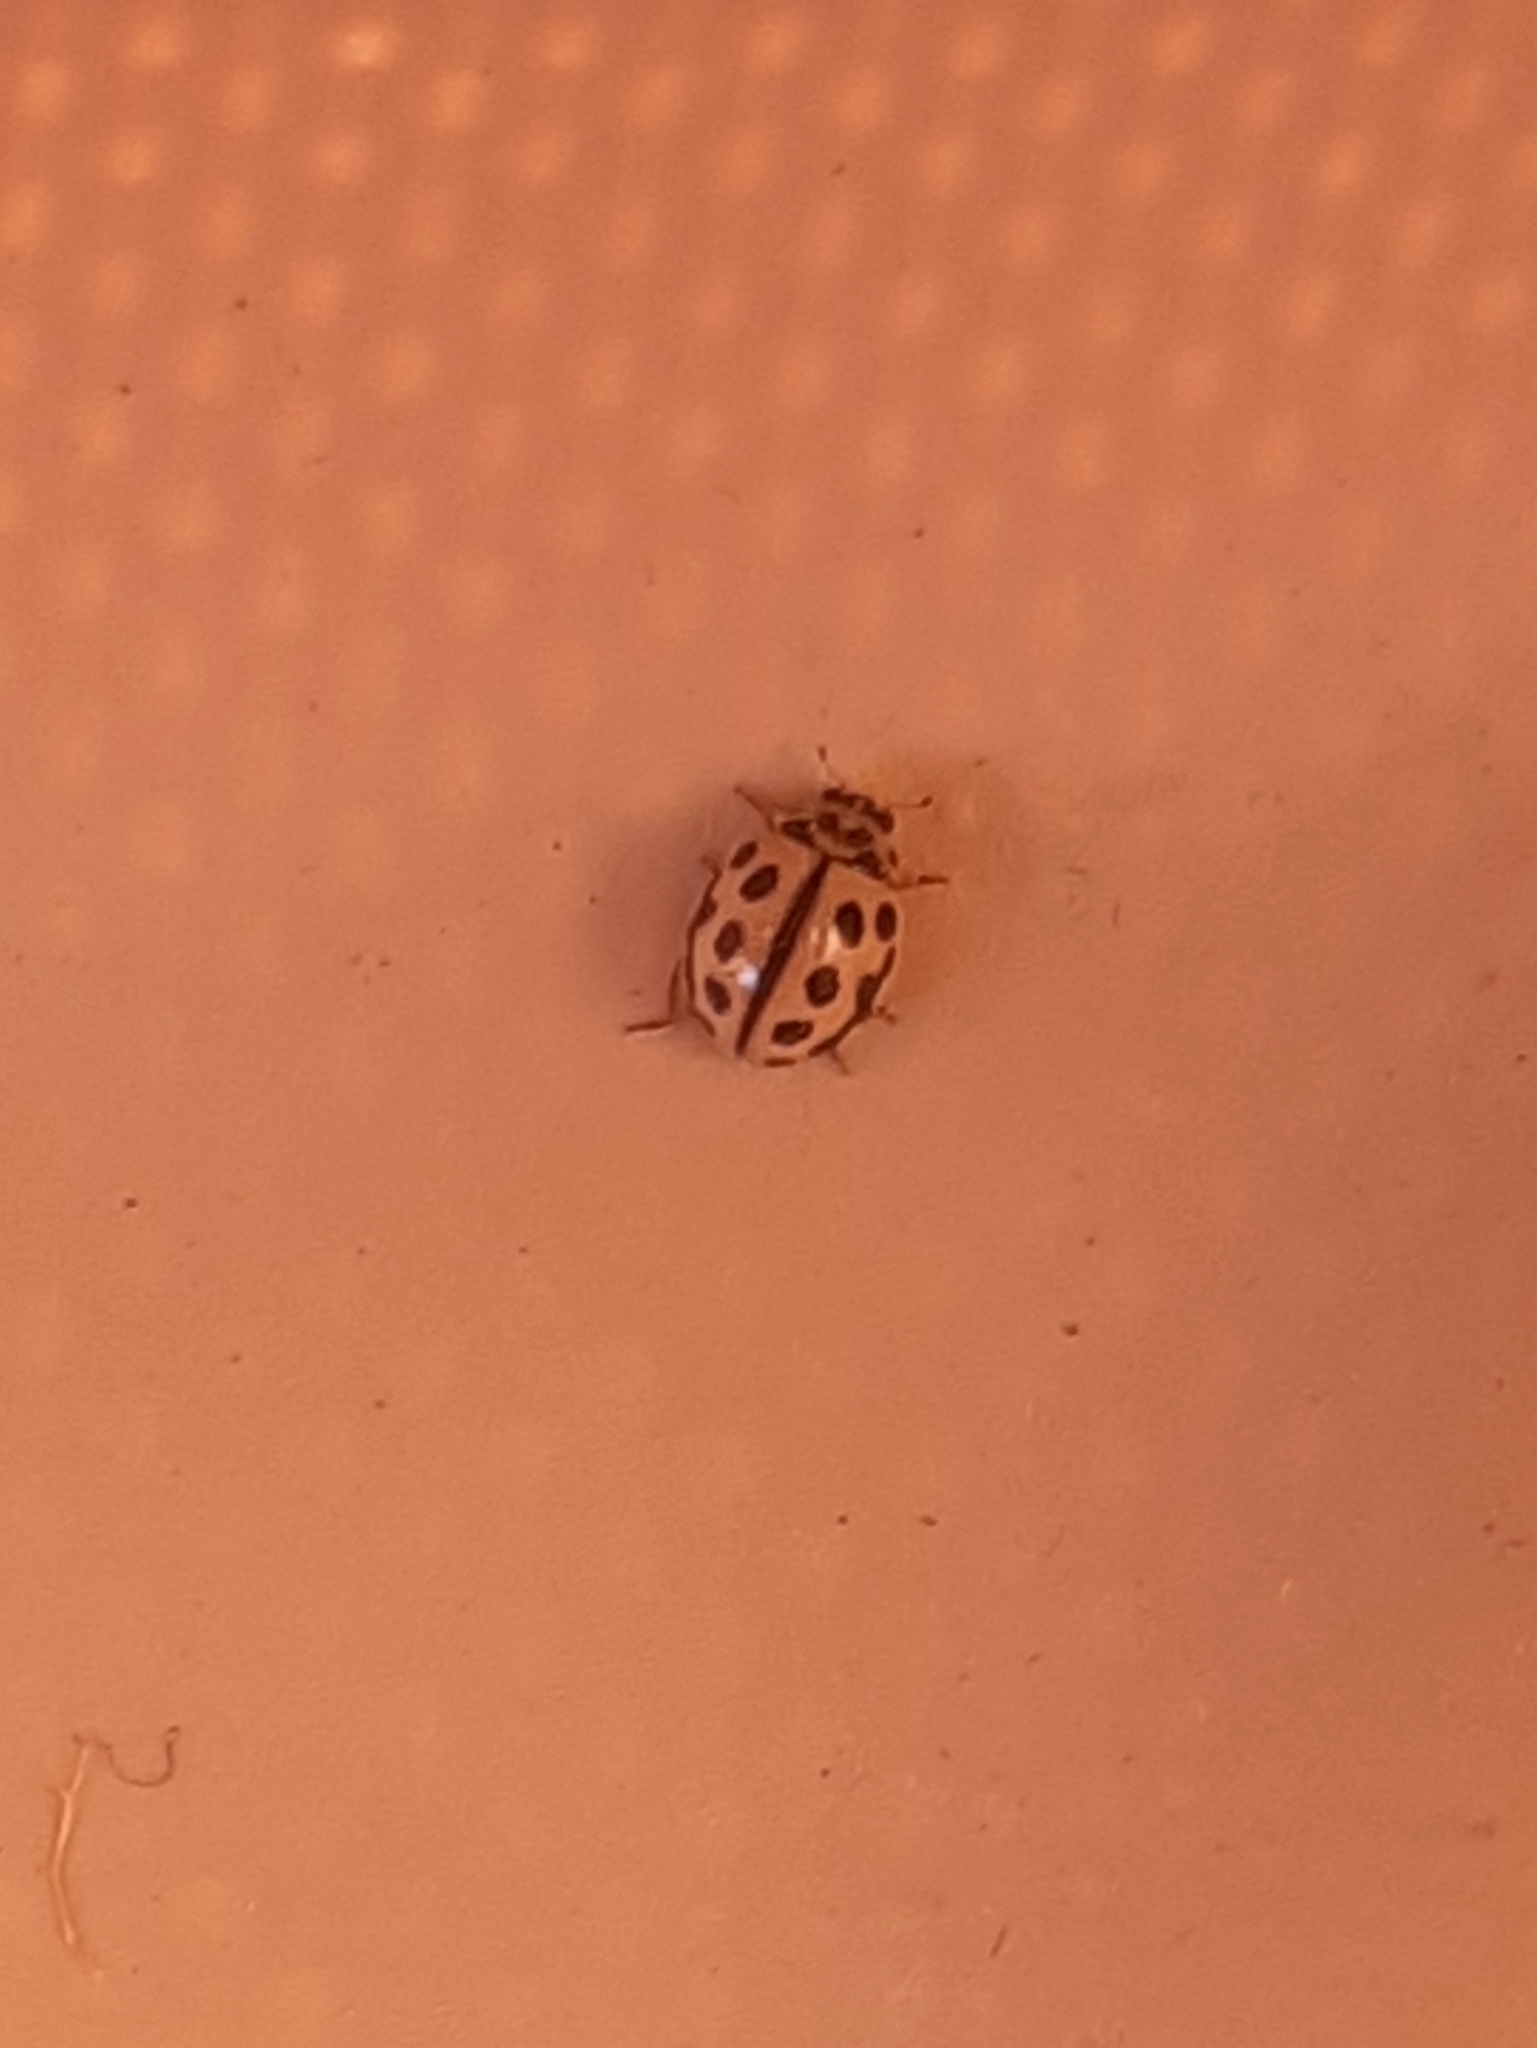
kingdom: Animalia
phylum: Arthropoda
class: Insecta
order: Coleoptera
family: Coccinellidae
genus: Tytthaspis
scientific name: Tytthaspis sedecimpunctata
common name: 16-spot ladybird
